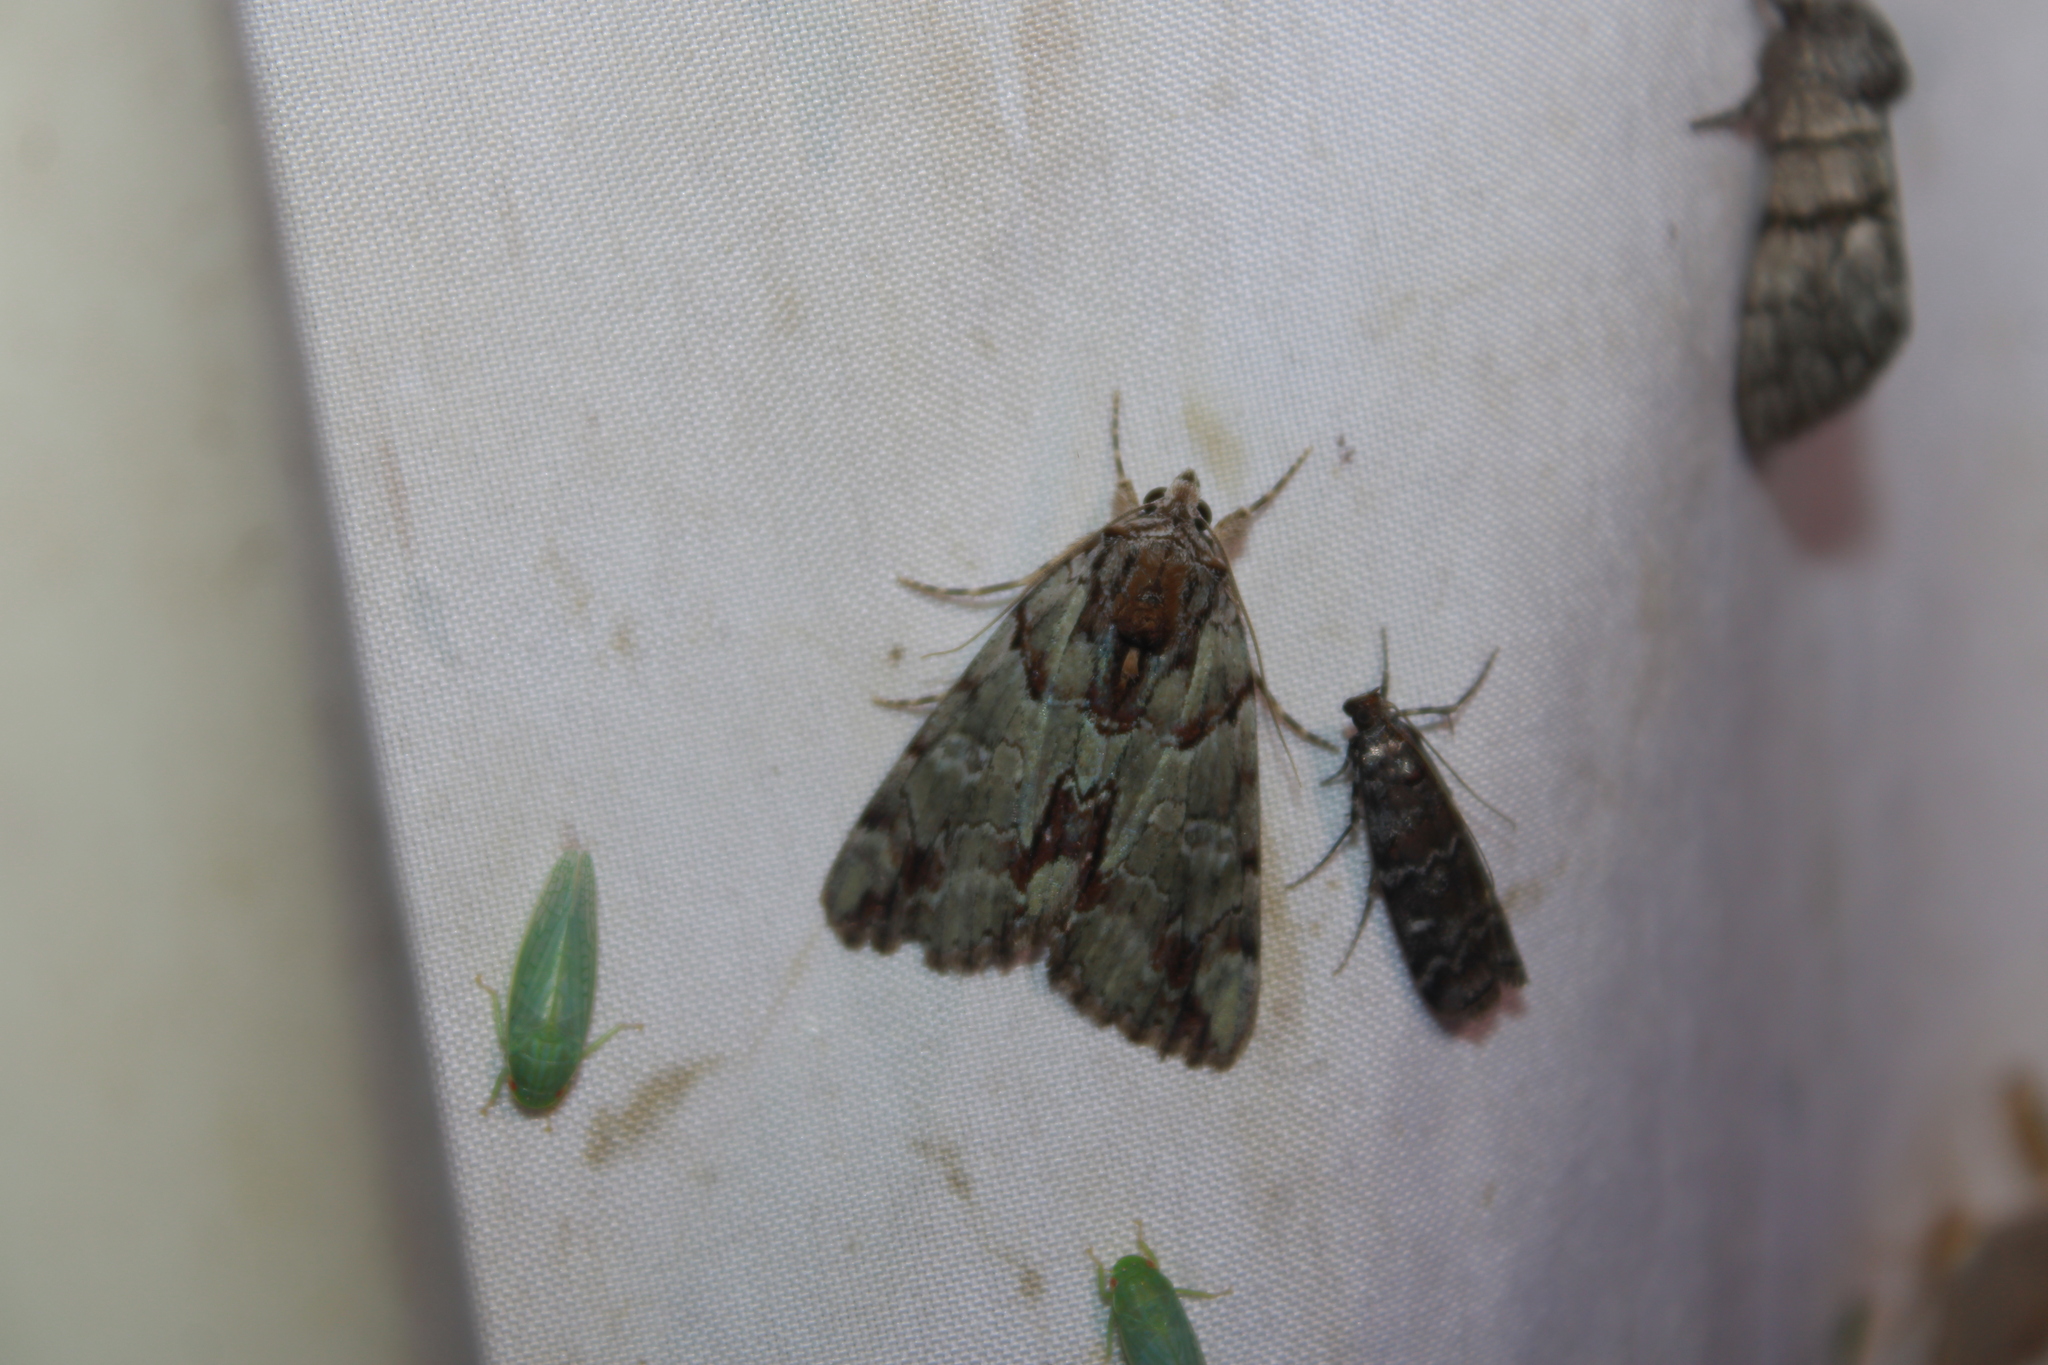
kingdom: Animalia
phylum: Arthropoda
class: Insecta
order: Lepidoptera
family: Erebidae
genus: Catocala
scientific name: Catocala praeclara
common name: Praeclara underwing
